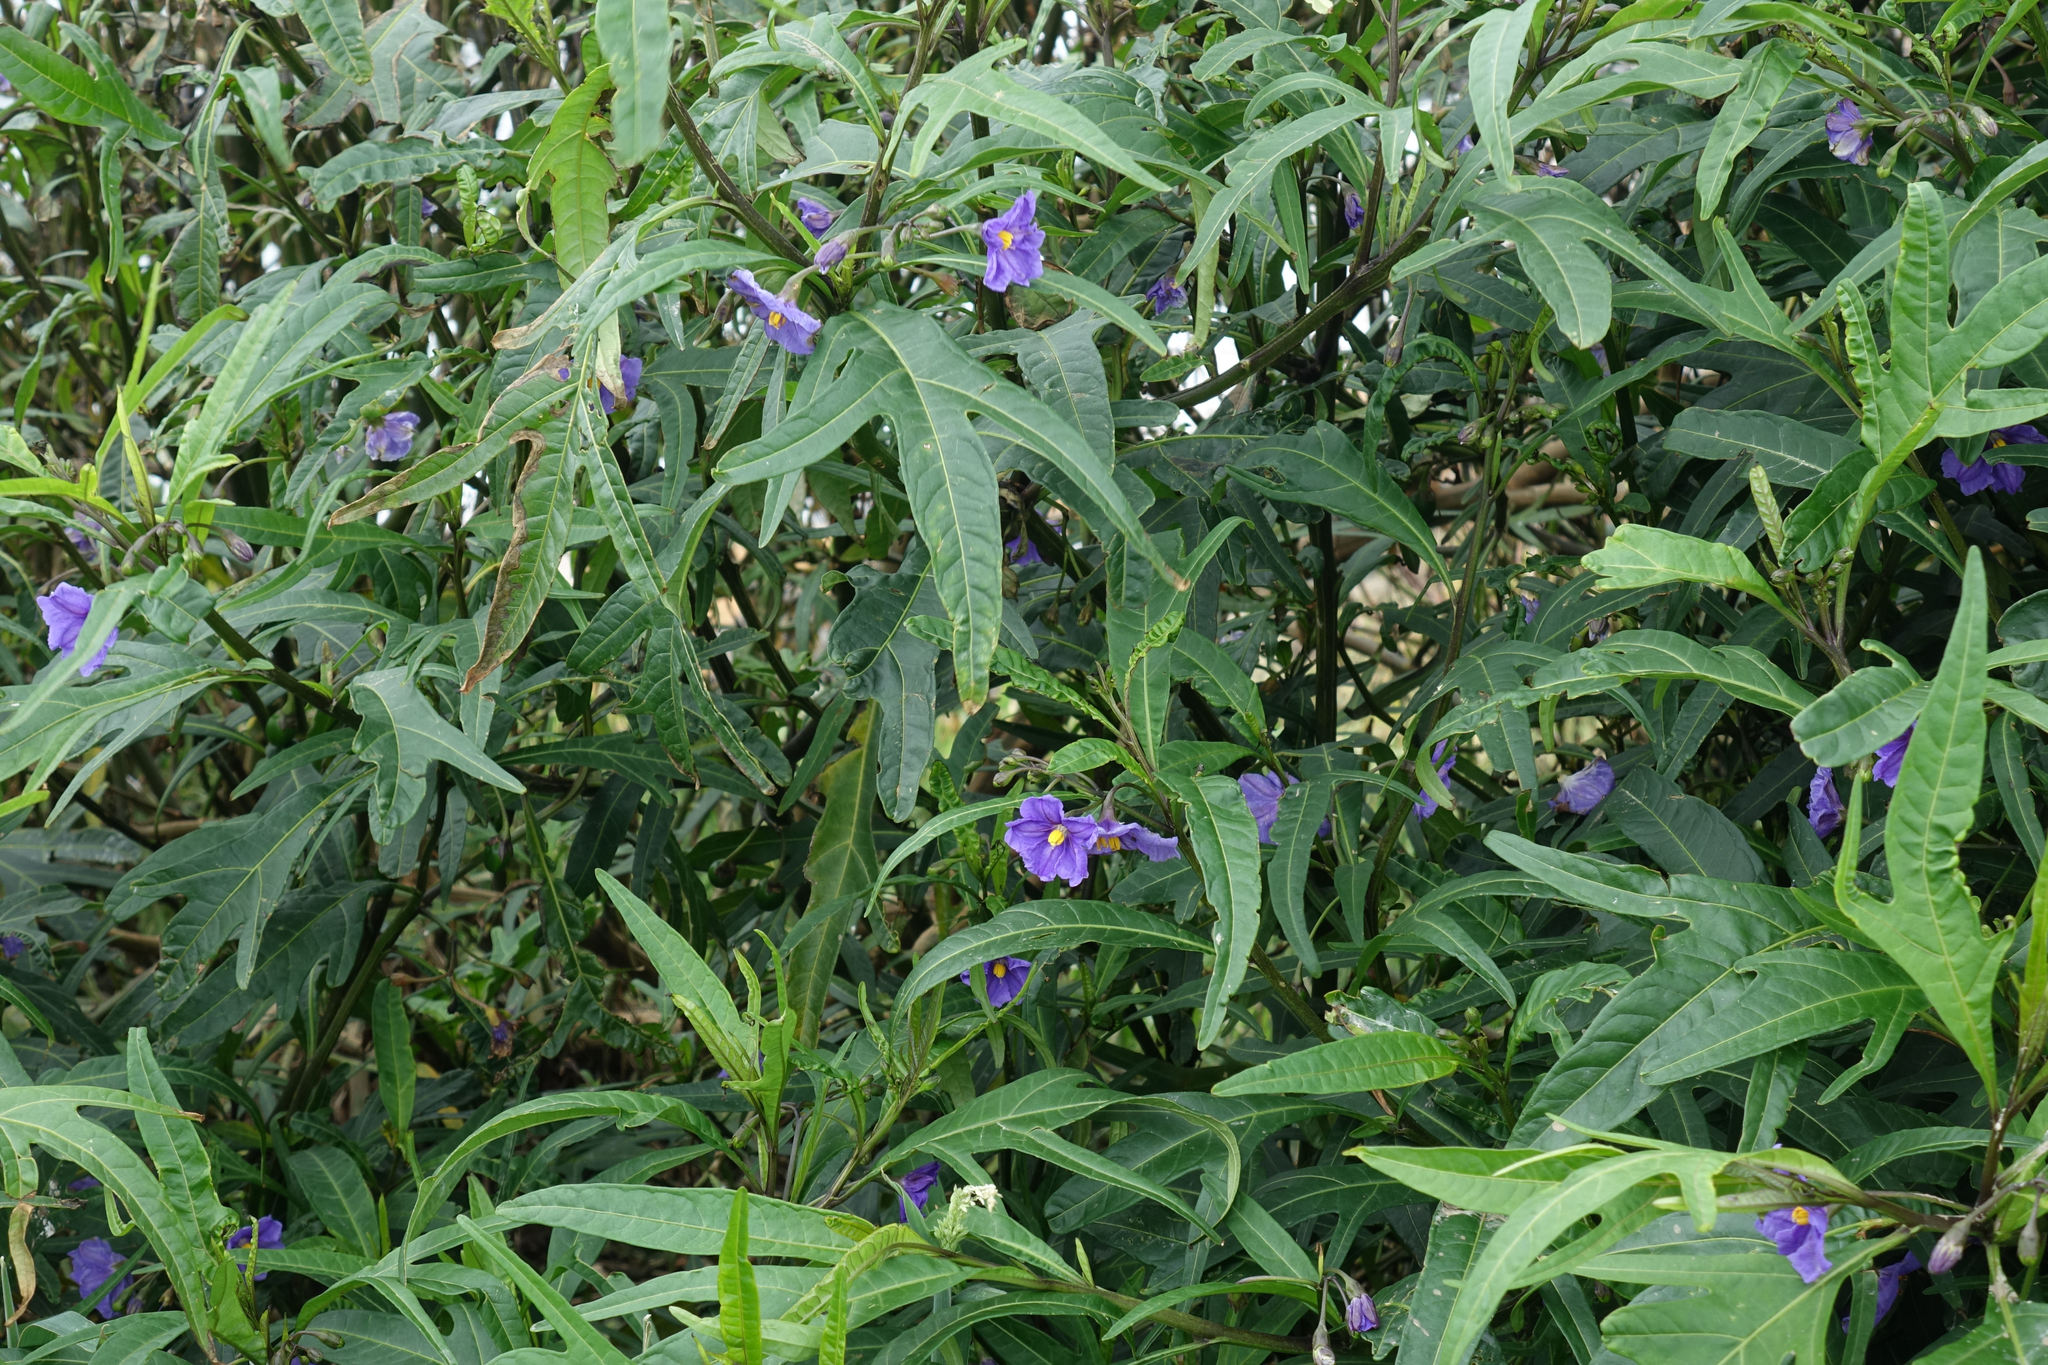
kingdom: Plantae
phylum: Tracheophyta
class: Magnoliopsida
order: Solanales
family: Solanaceae
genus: Solanum
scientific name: Solanum laciniatum
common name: Kangaroo-apple
